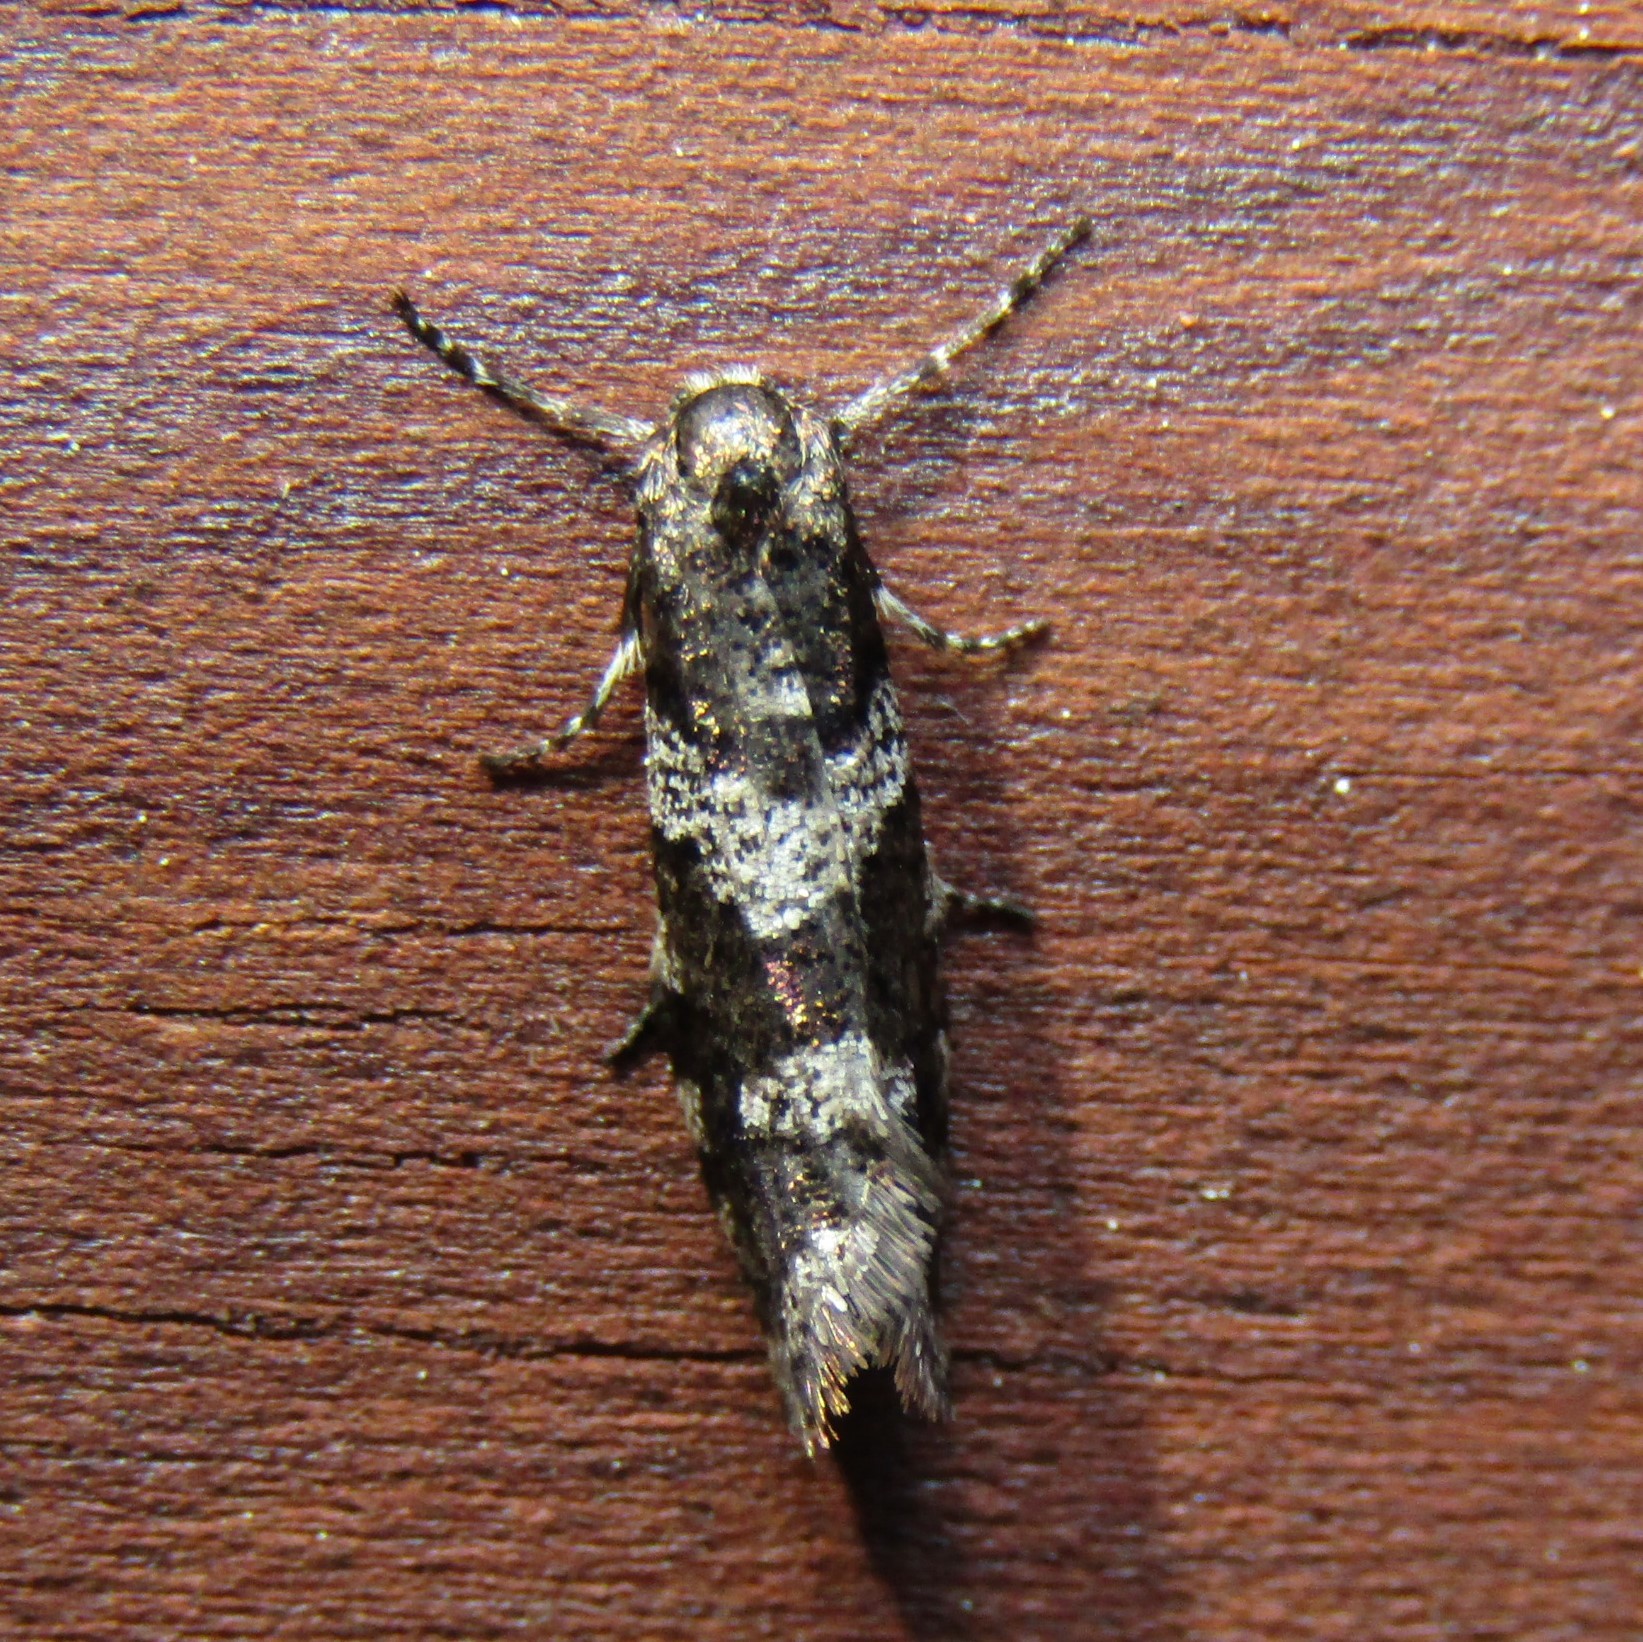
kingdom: Animalia
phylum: Arthropoda
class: Insecta
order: Lepidoptera
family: Psychidae
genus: Lepidoscia
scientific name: Lepidoscia heliochares
